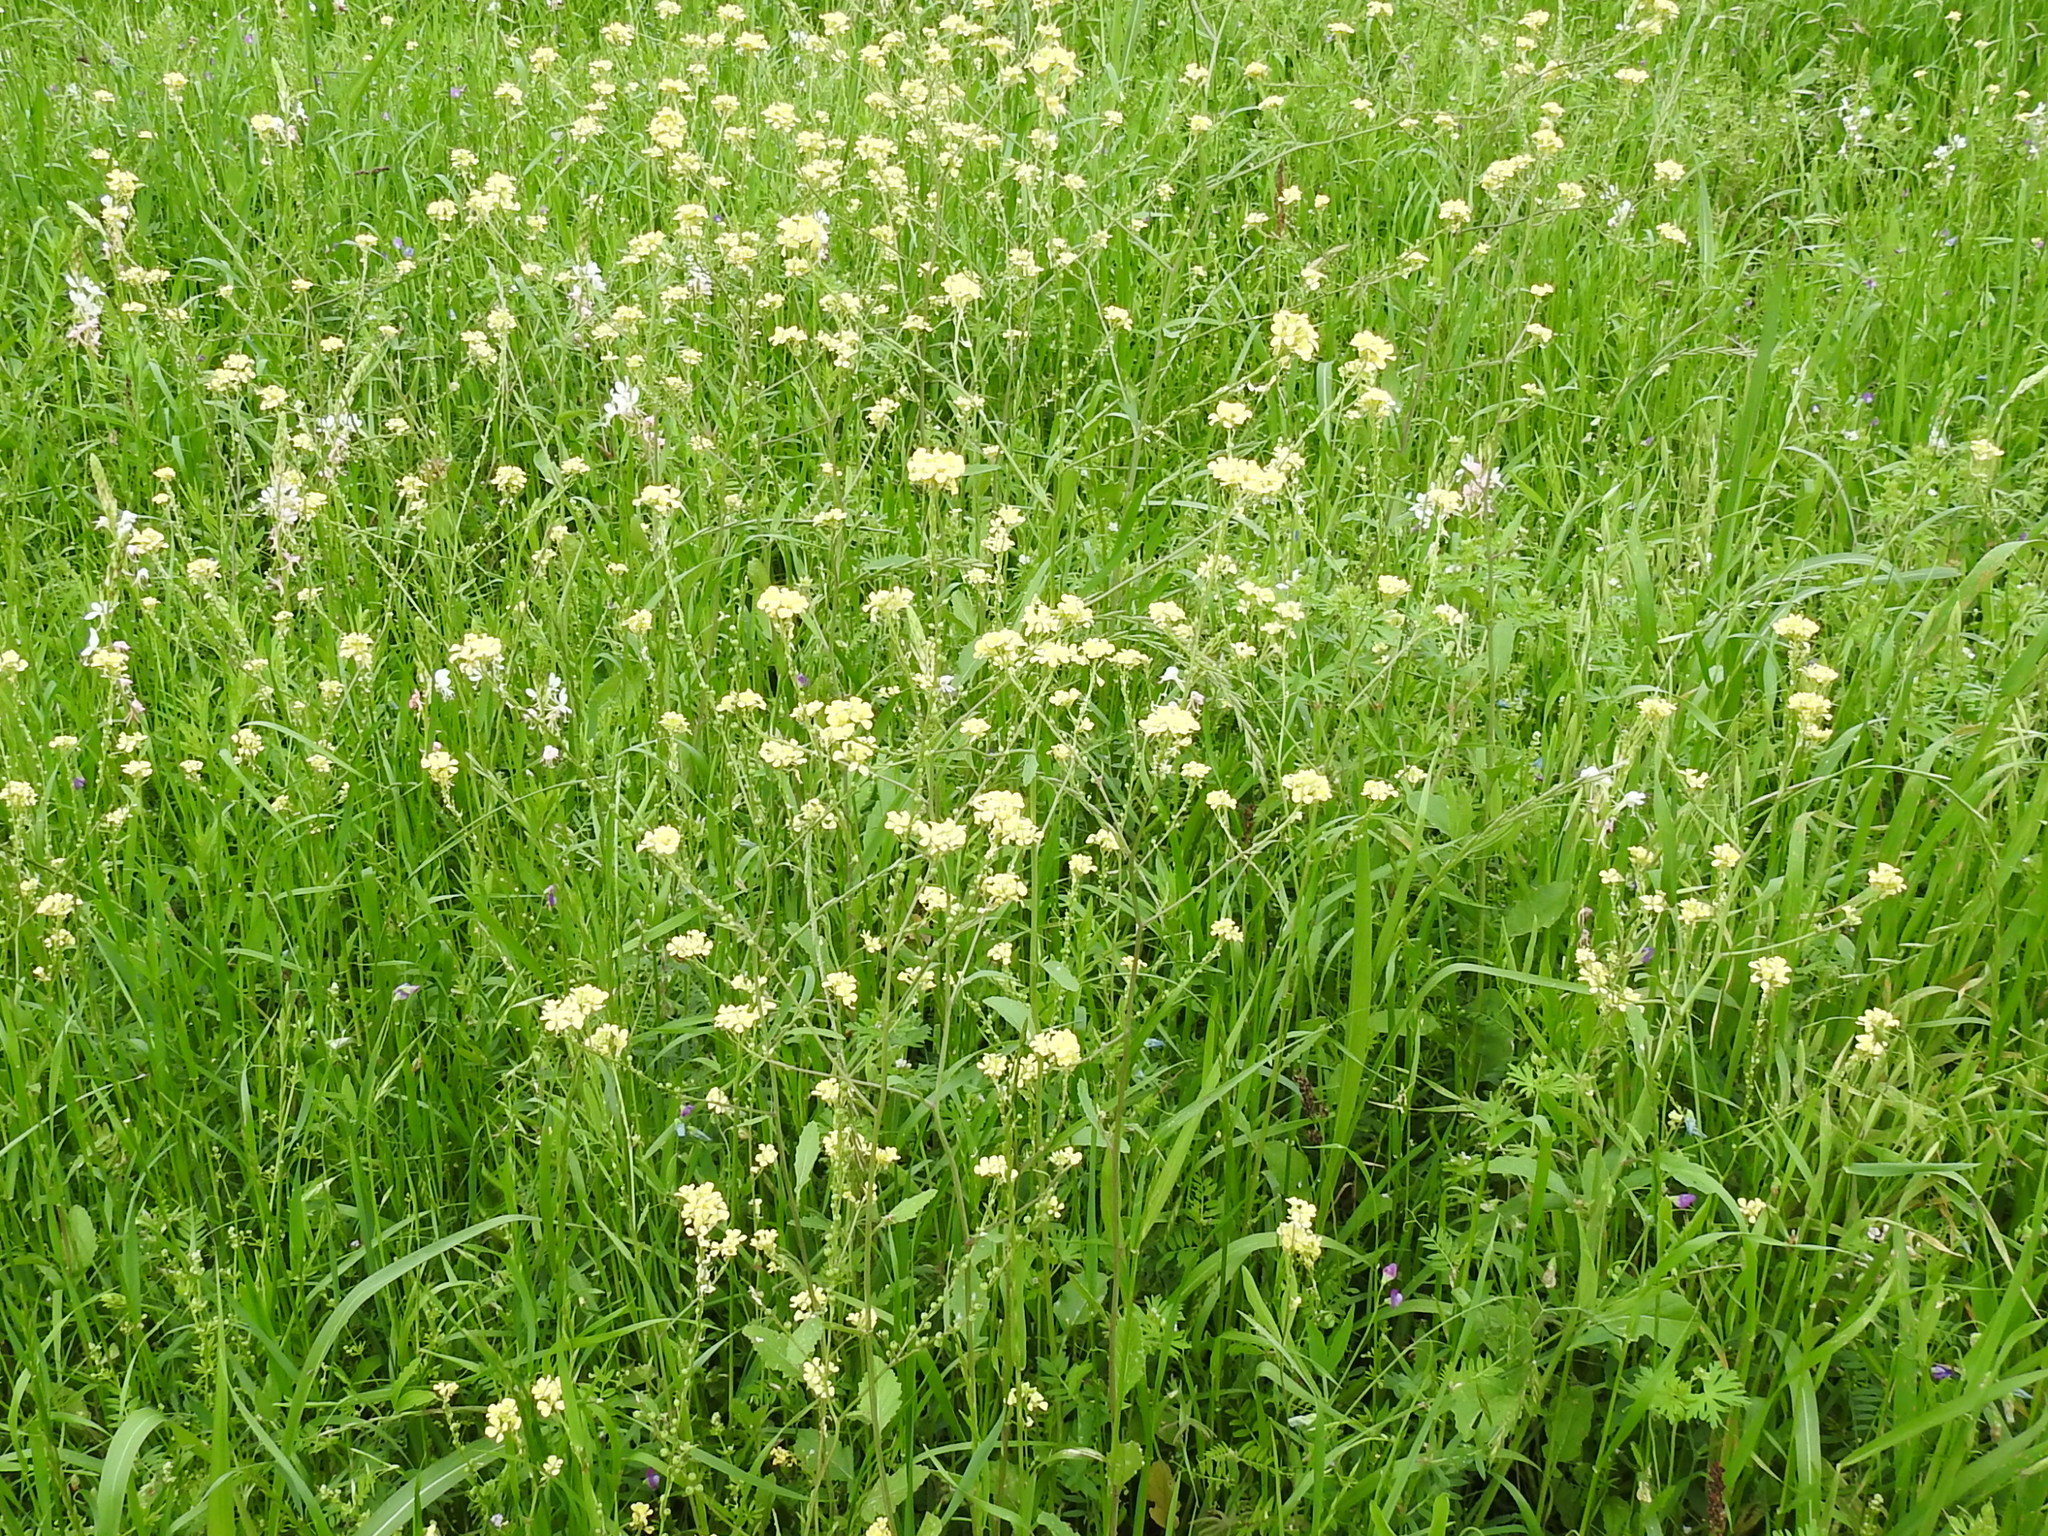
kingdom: Plantae
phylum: Tracheophyta
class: Magnoliopsida
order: Brassicales
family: Brassicaceae
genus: Rapistrum
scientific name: Rapistrum rugosum
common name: Annual bastardcabbage
